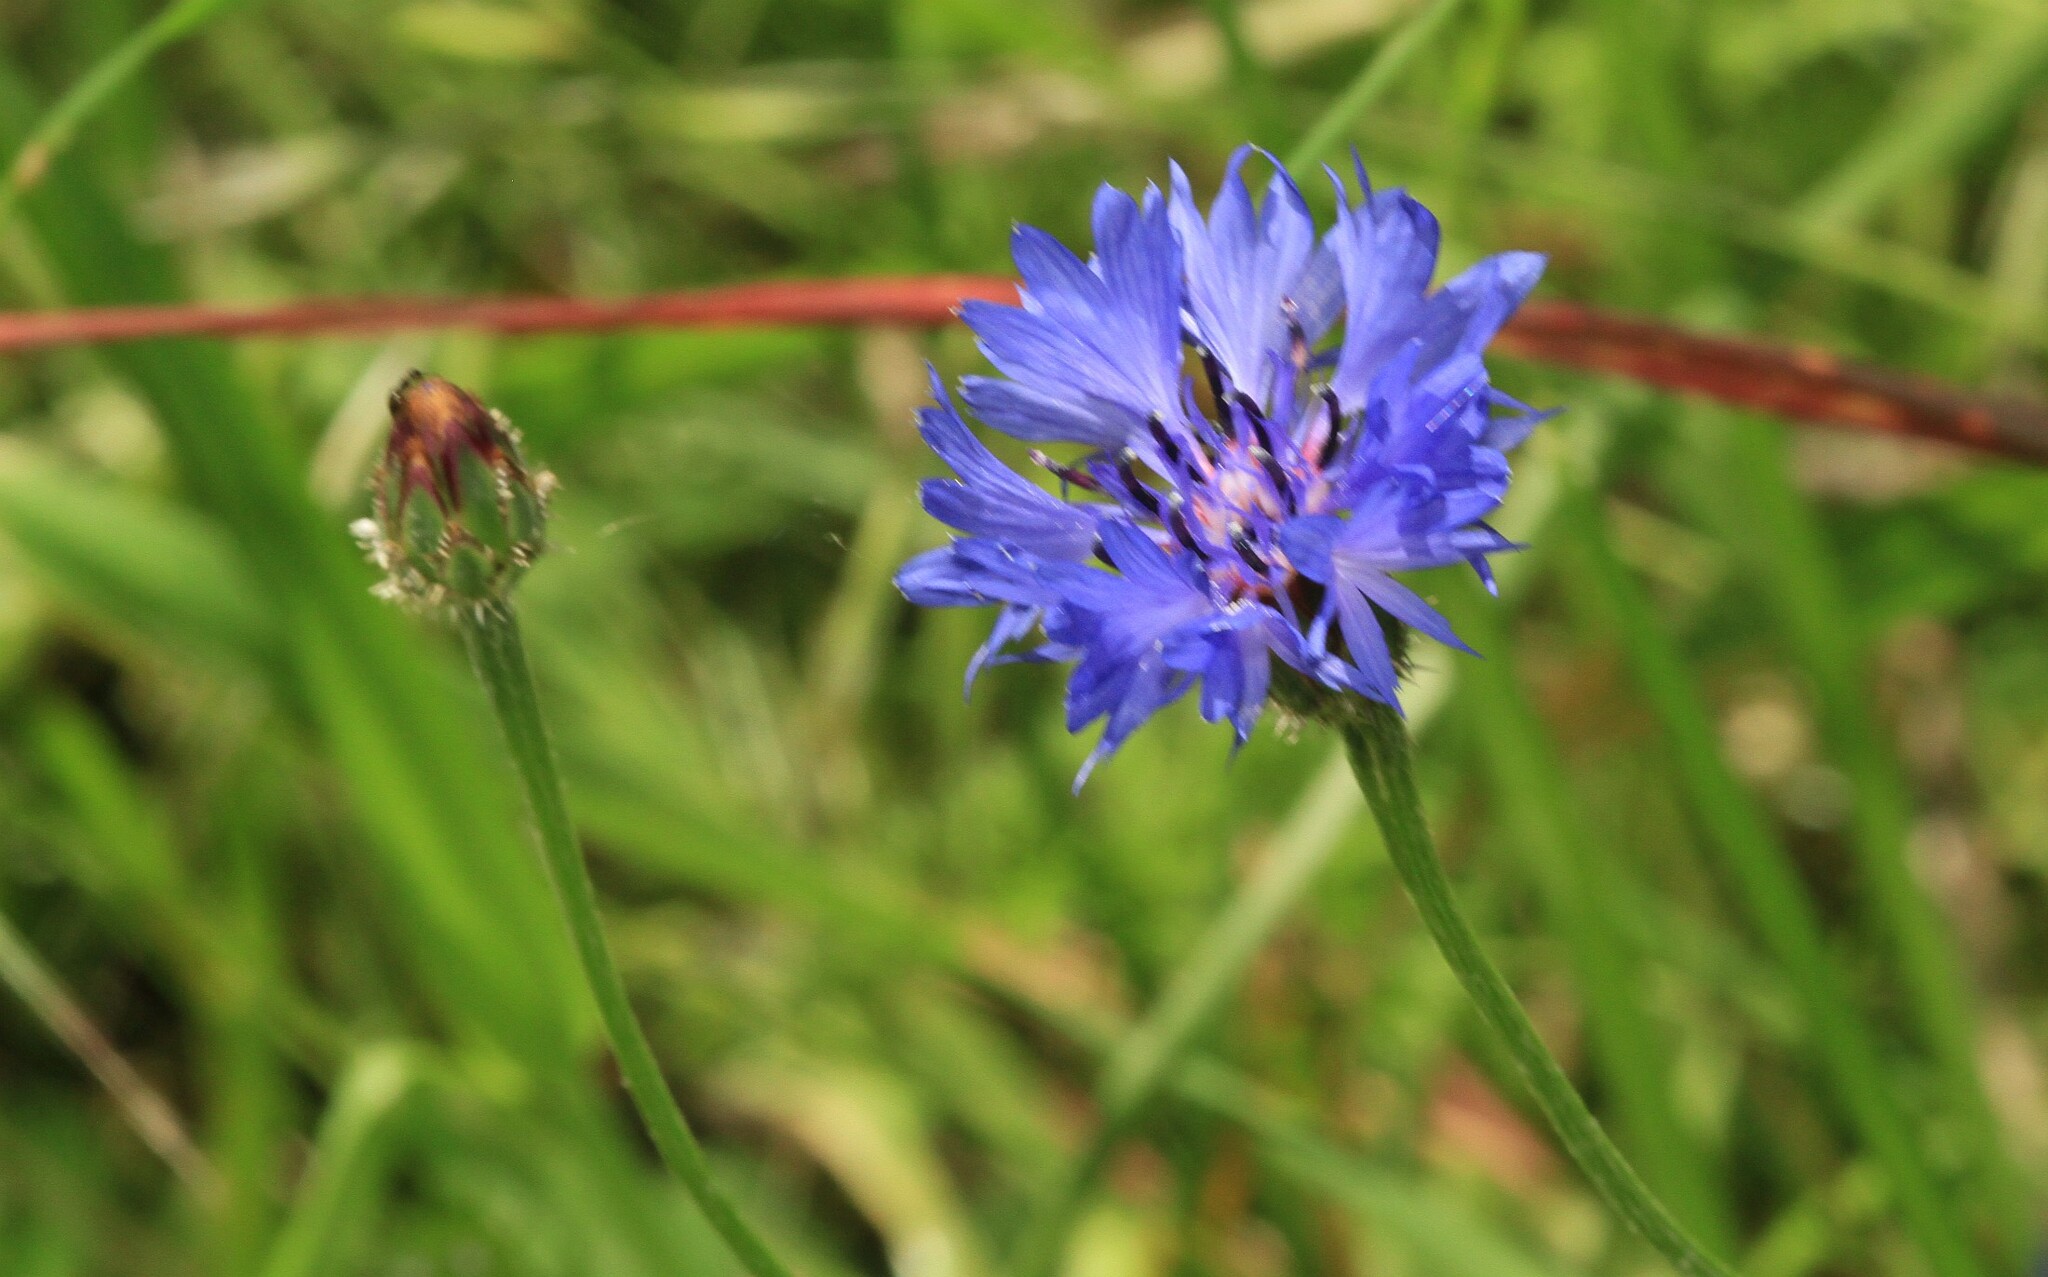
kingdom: Plantae
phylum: Tracheophyta
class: Magnoliopsida
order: Asterales
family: Asteraceae
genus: Centaurea
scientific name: Centaurea cyanus
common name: Cornflower
